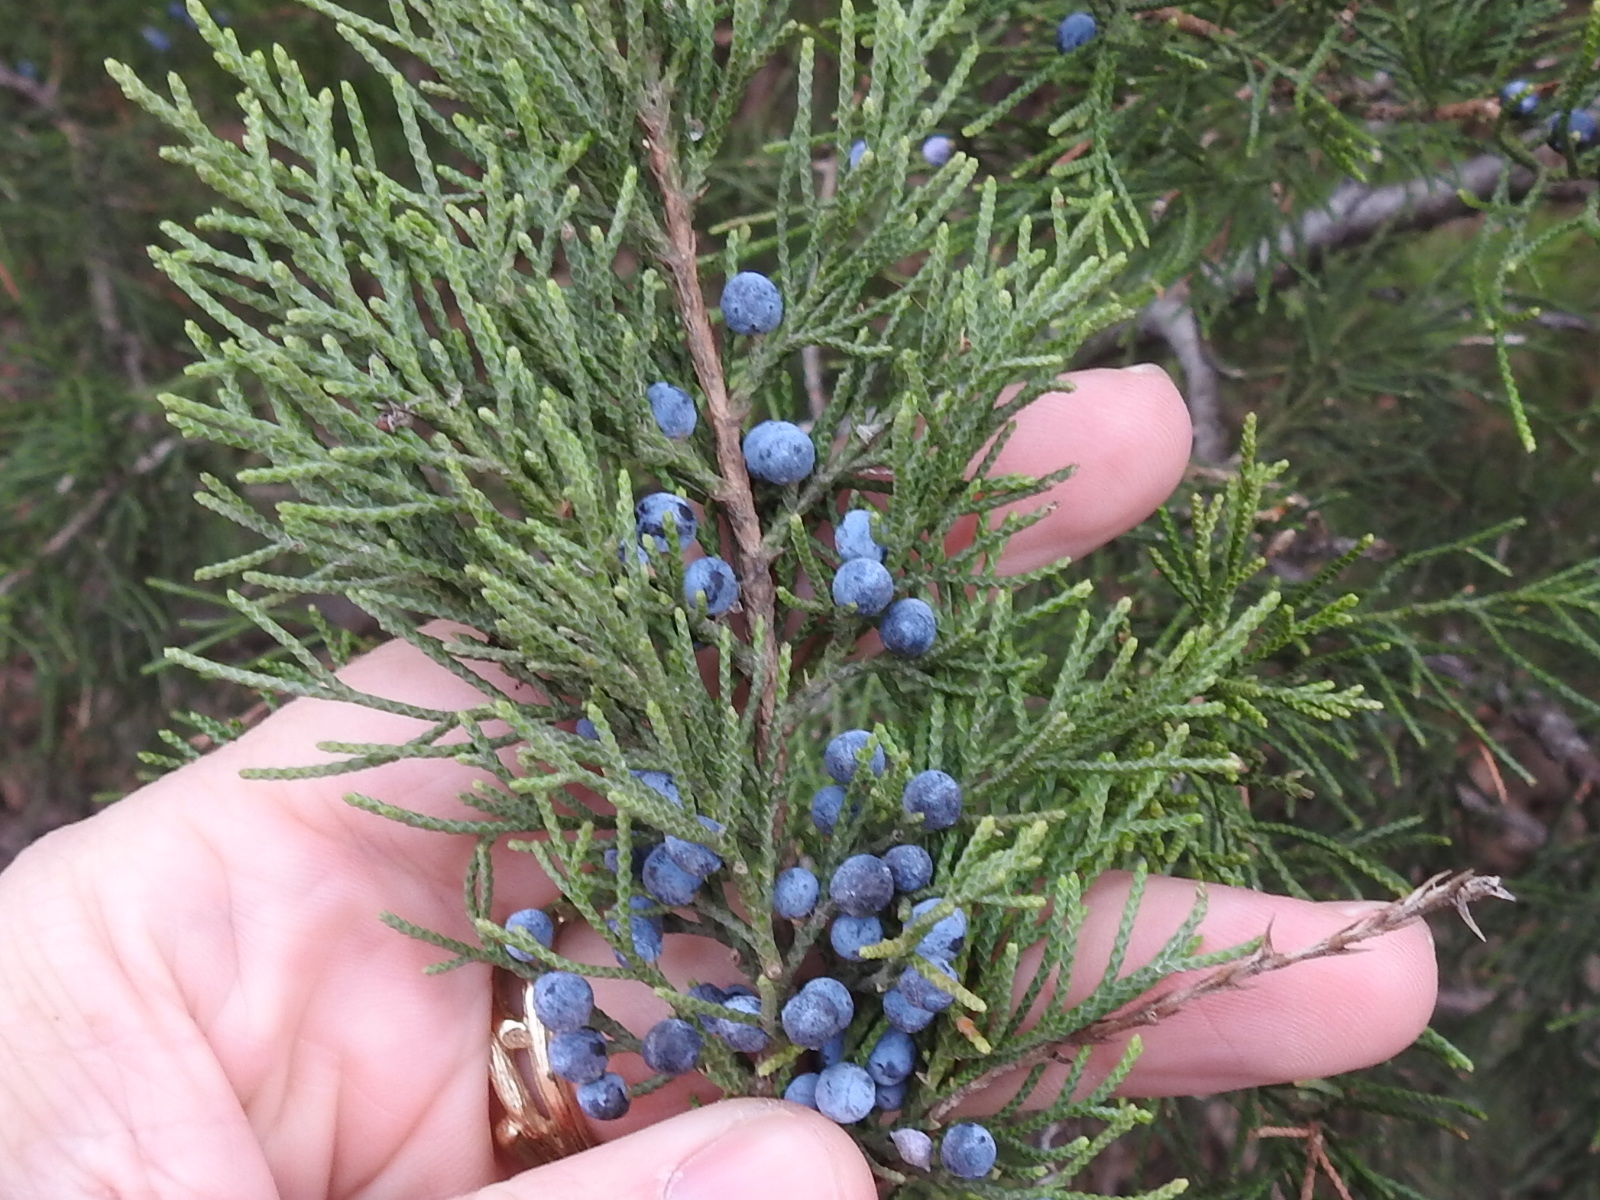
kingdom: Plantae
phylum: Tracheophyta
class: Pinopsida
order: Pinales
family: Cupressaceae
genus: Juniperus
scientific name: Juniperus virginiana
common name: Red juniper
